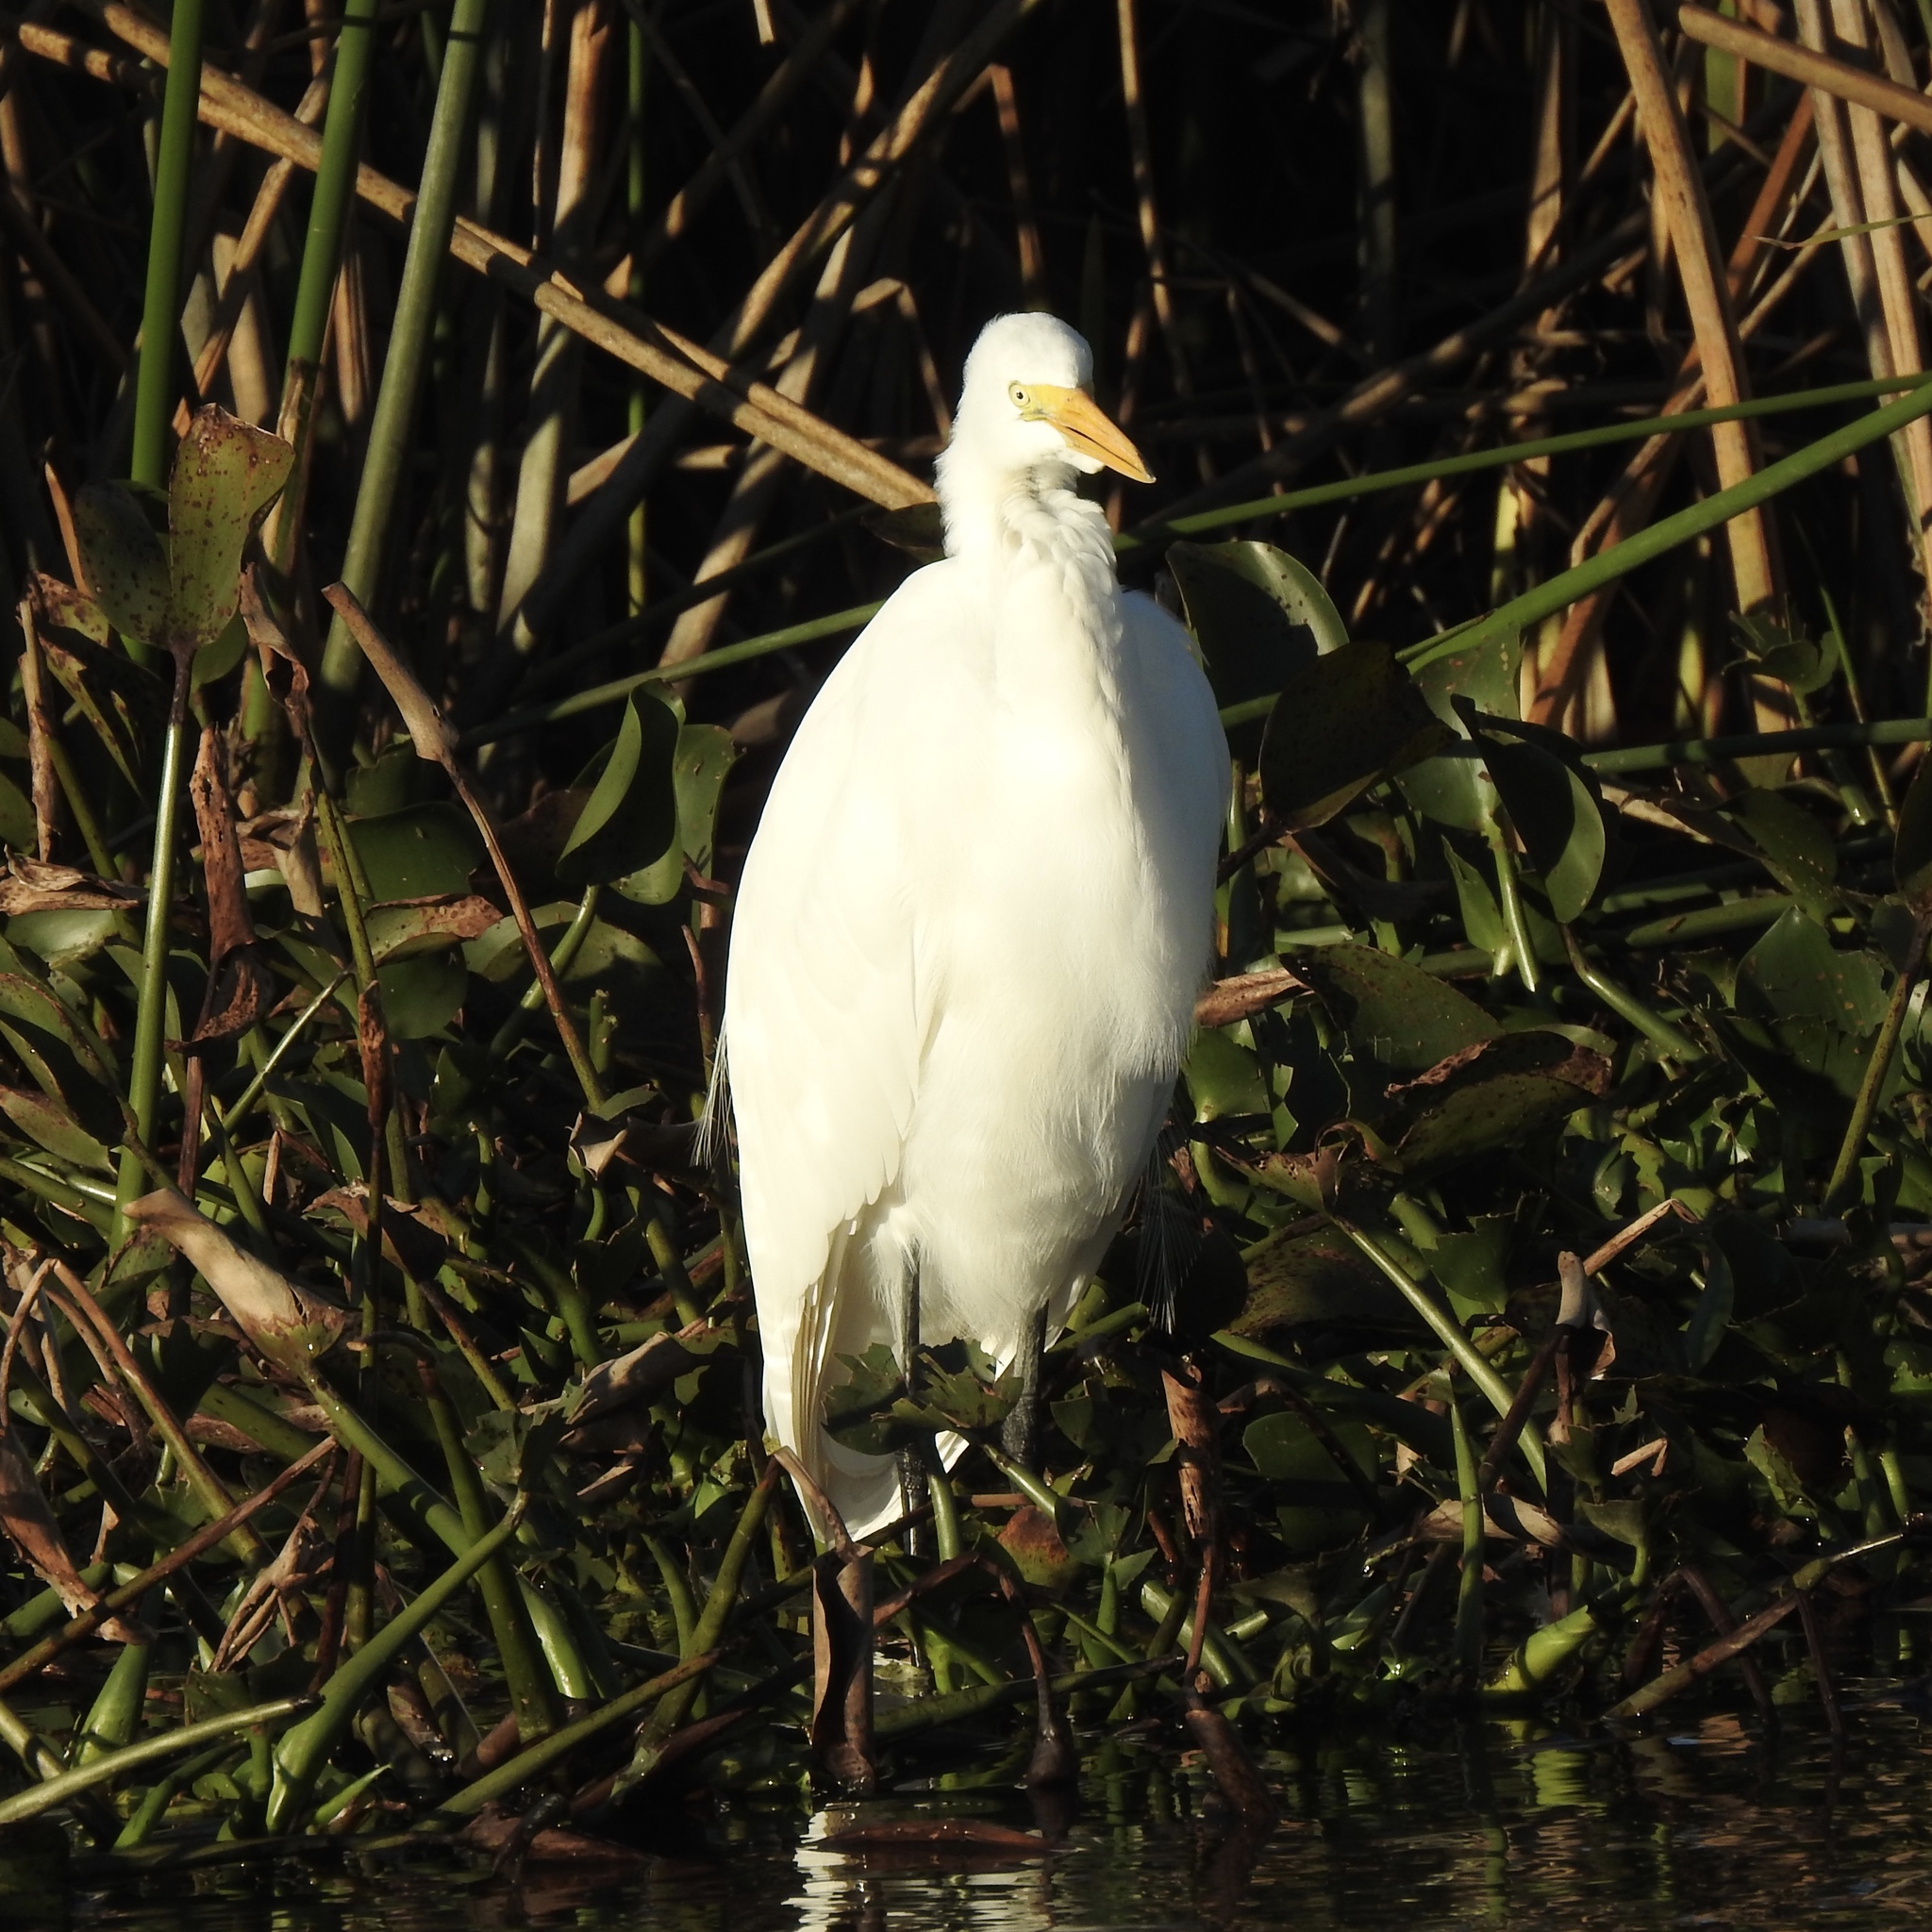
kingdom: Animalia
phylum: Chordata
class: Aves
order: Pelecaniformes
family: Ardeidae
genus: Ardea
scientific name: Ardea alba
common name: Great egret
